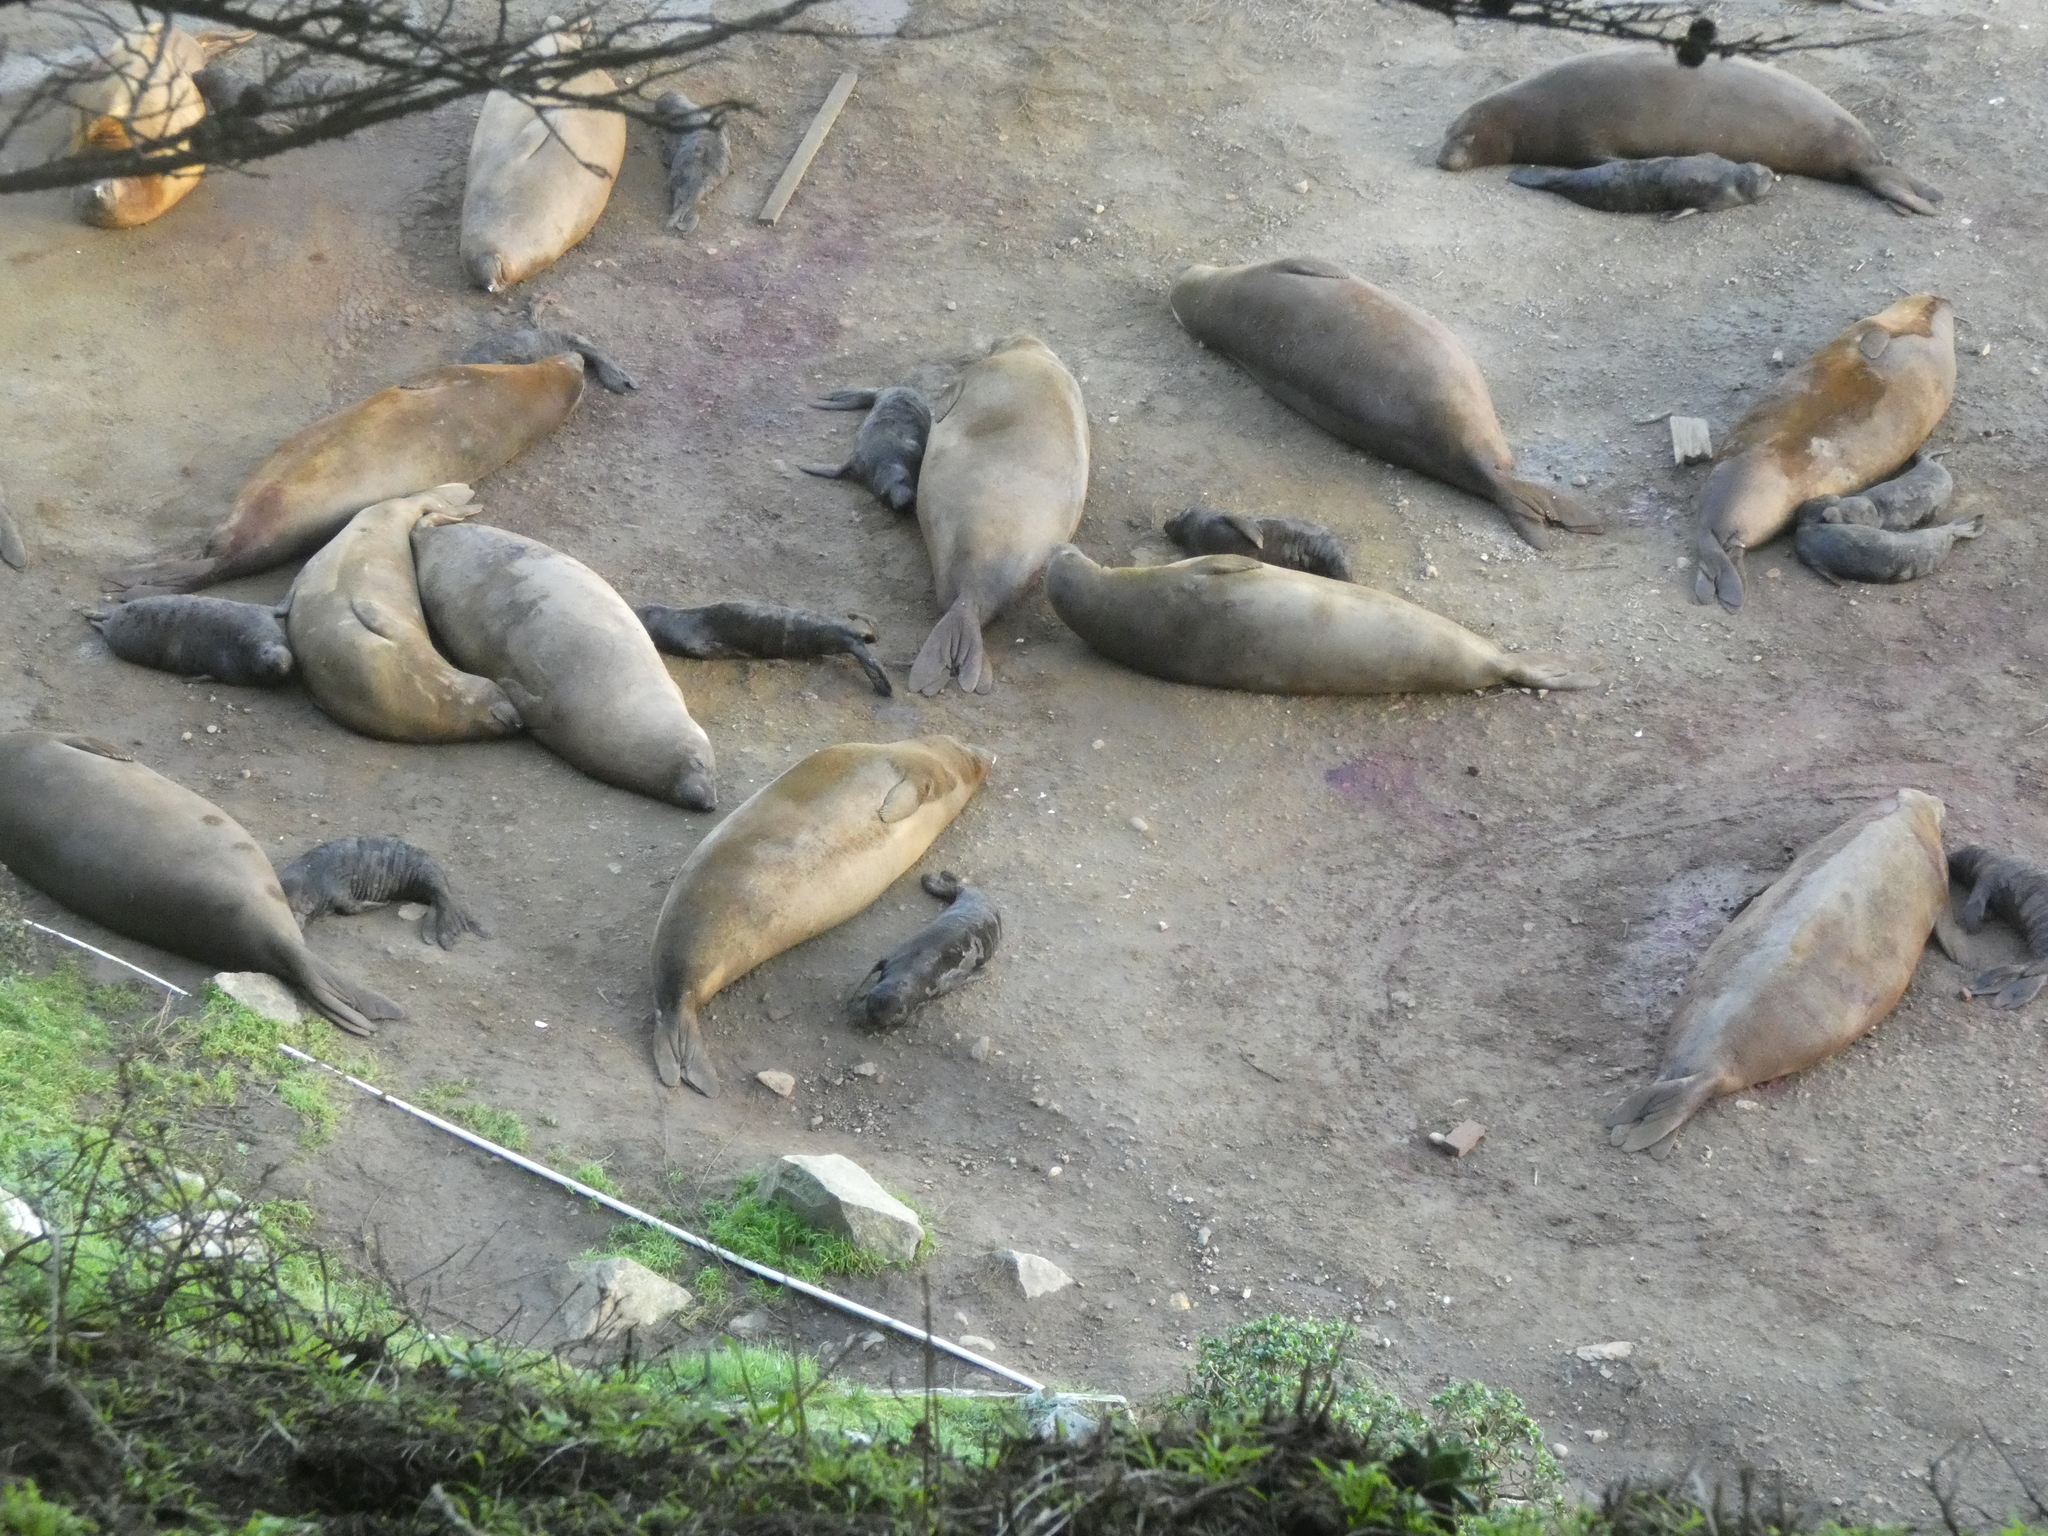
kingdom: Animalia
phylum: Chordata
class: Mammalia
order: Carnivora
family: Phocidae
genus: Mirounga
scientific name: Mirounga angustirostris
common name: Northern elephant seal
